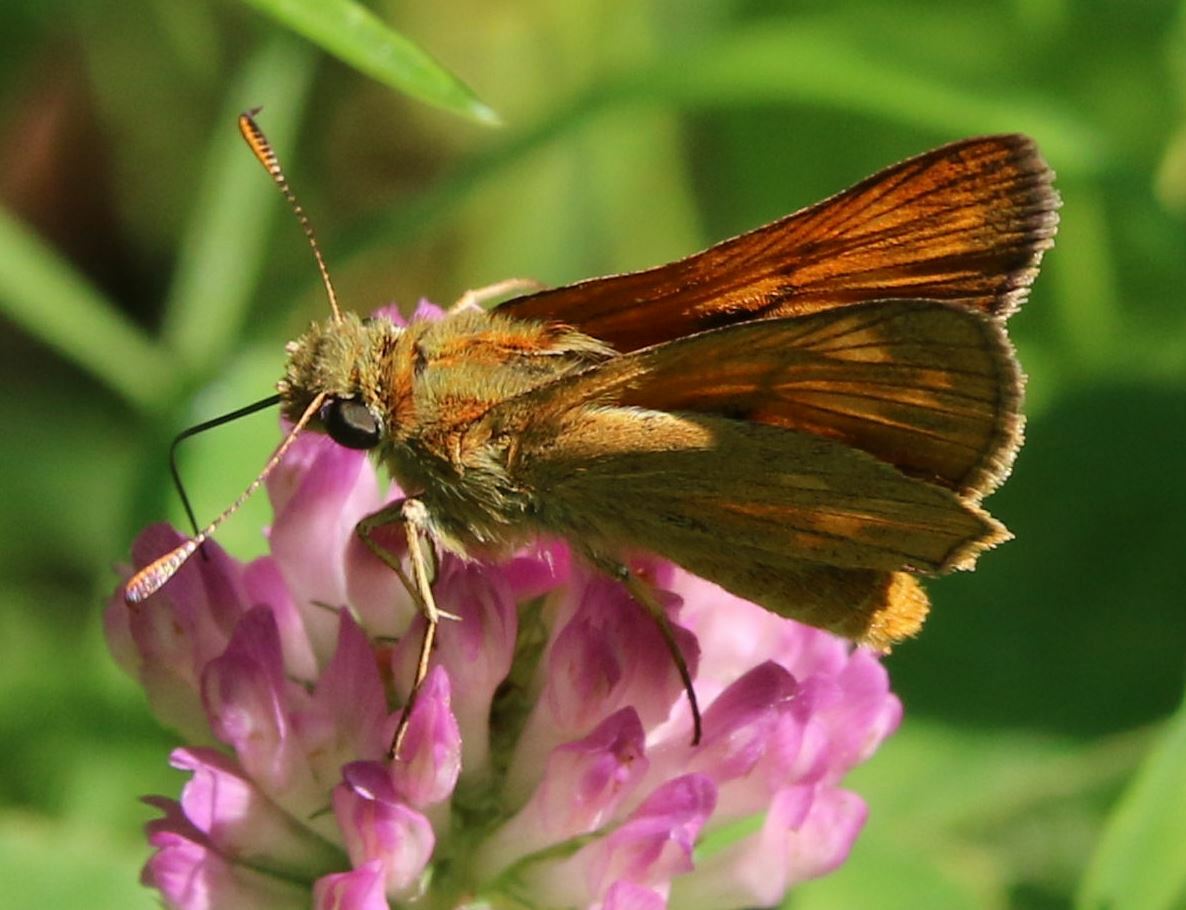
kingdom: Animalia
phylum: Arthropoda
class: Insecta
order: Lepidoptera
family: Hesperiidae
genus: Ochlodes
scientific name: Ochlodes venata
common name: Large skipper
